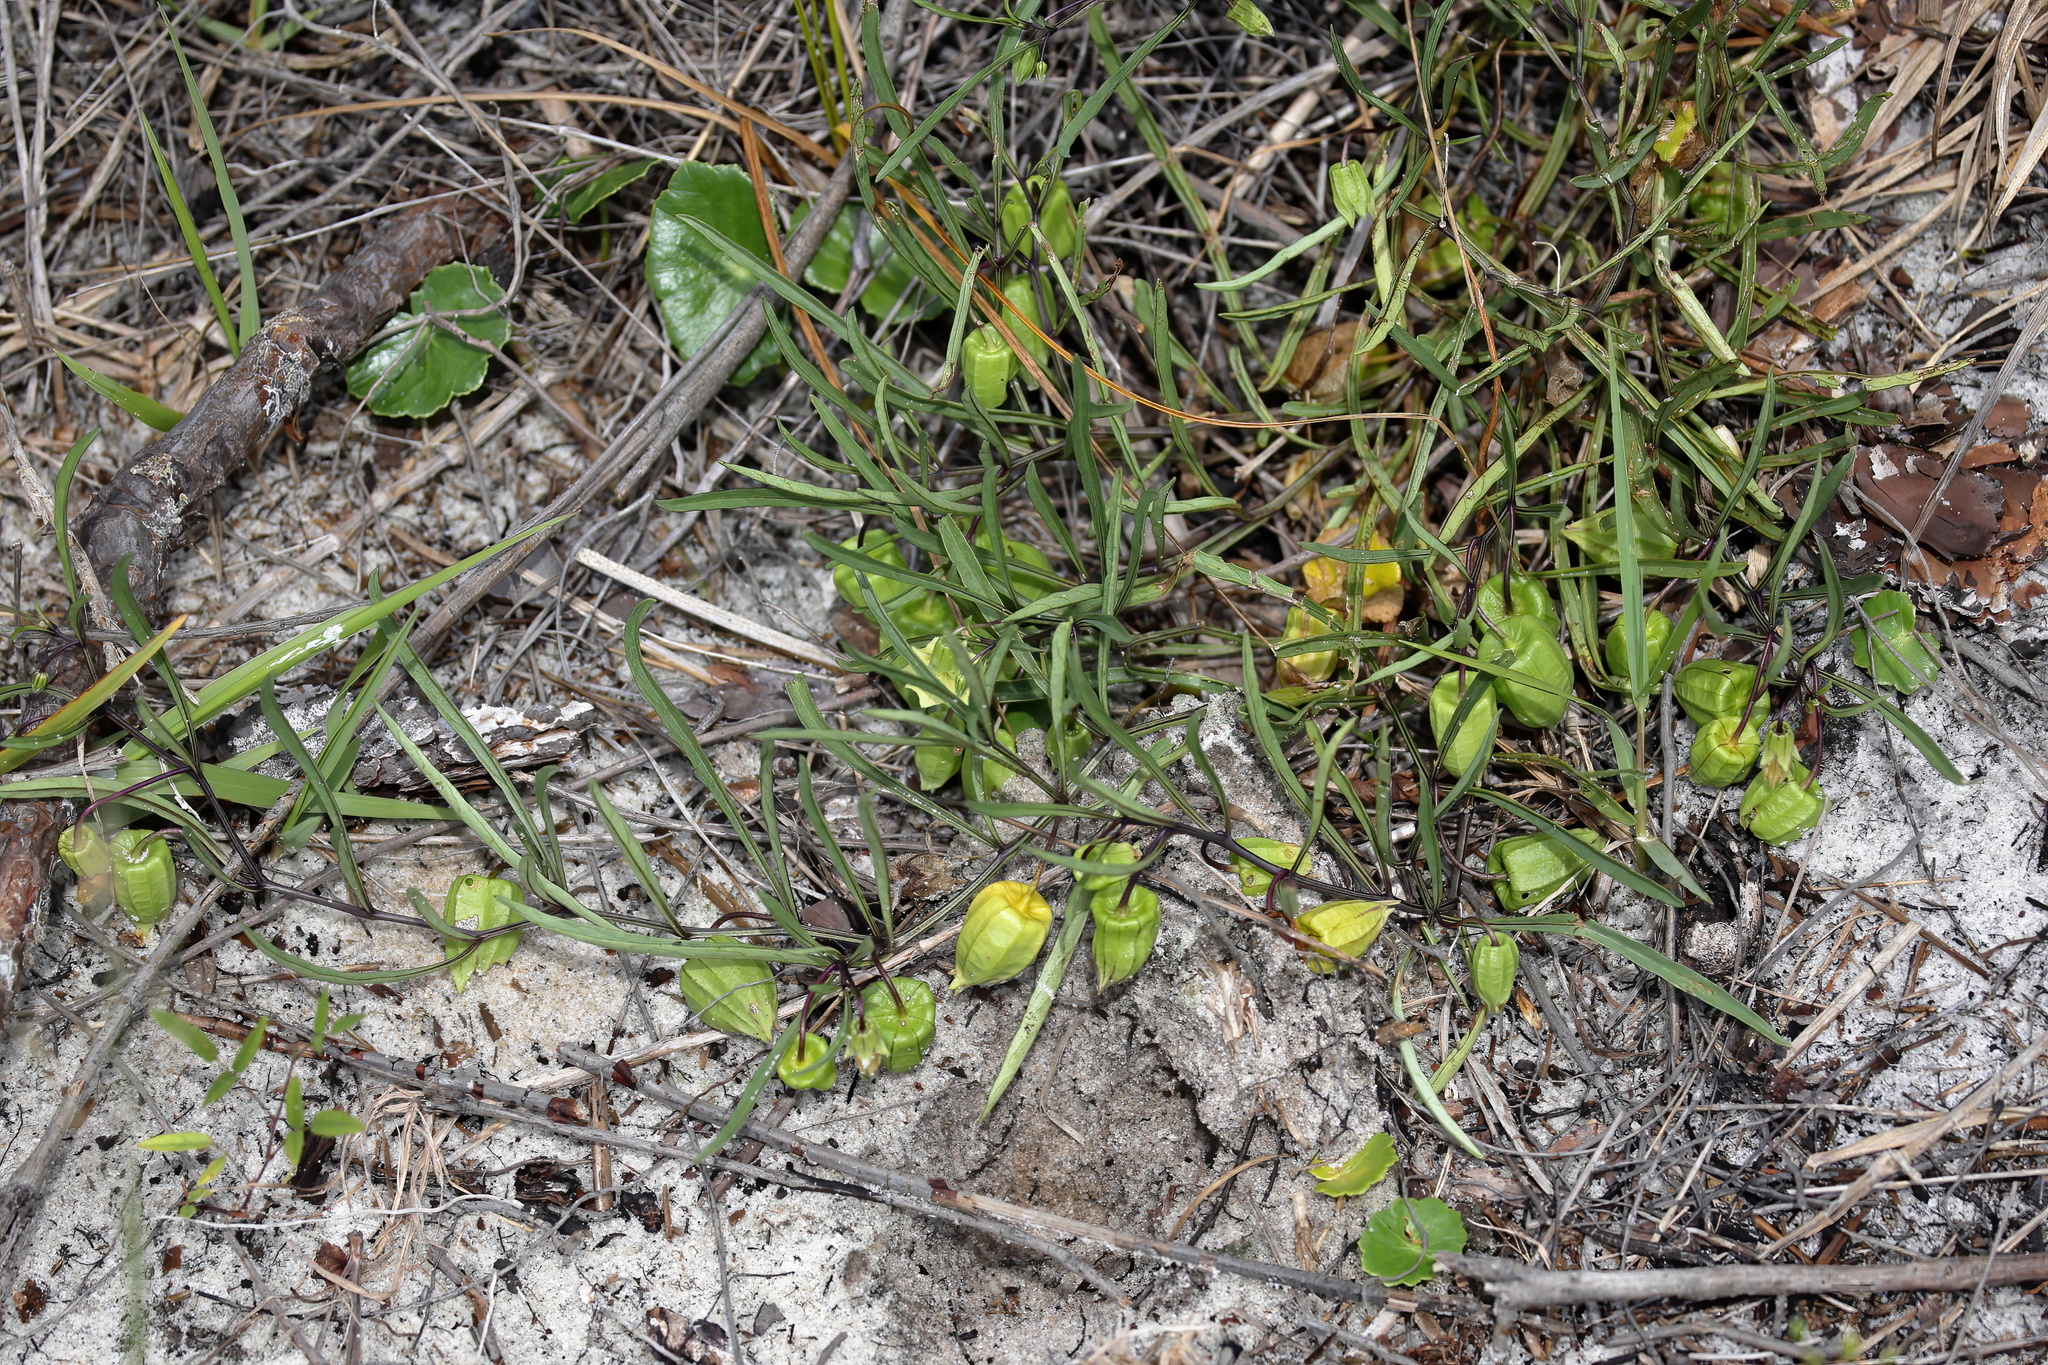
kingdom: Plantae
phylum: Tracheophyta
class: Magnoliopsida
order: Solanales
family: Solanaceae
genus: Physalis
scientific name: Physalis angustifolia
